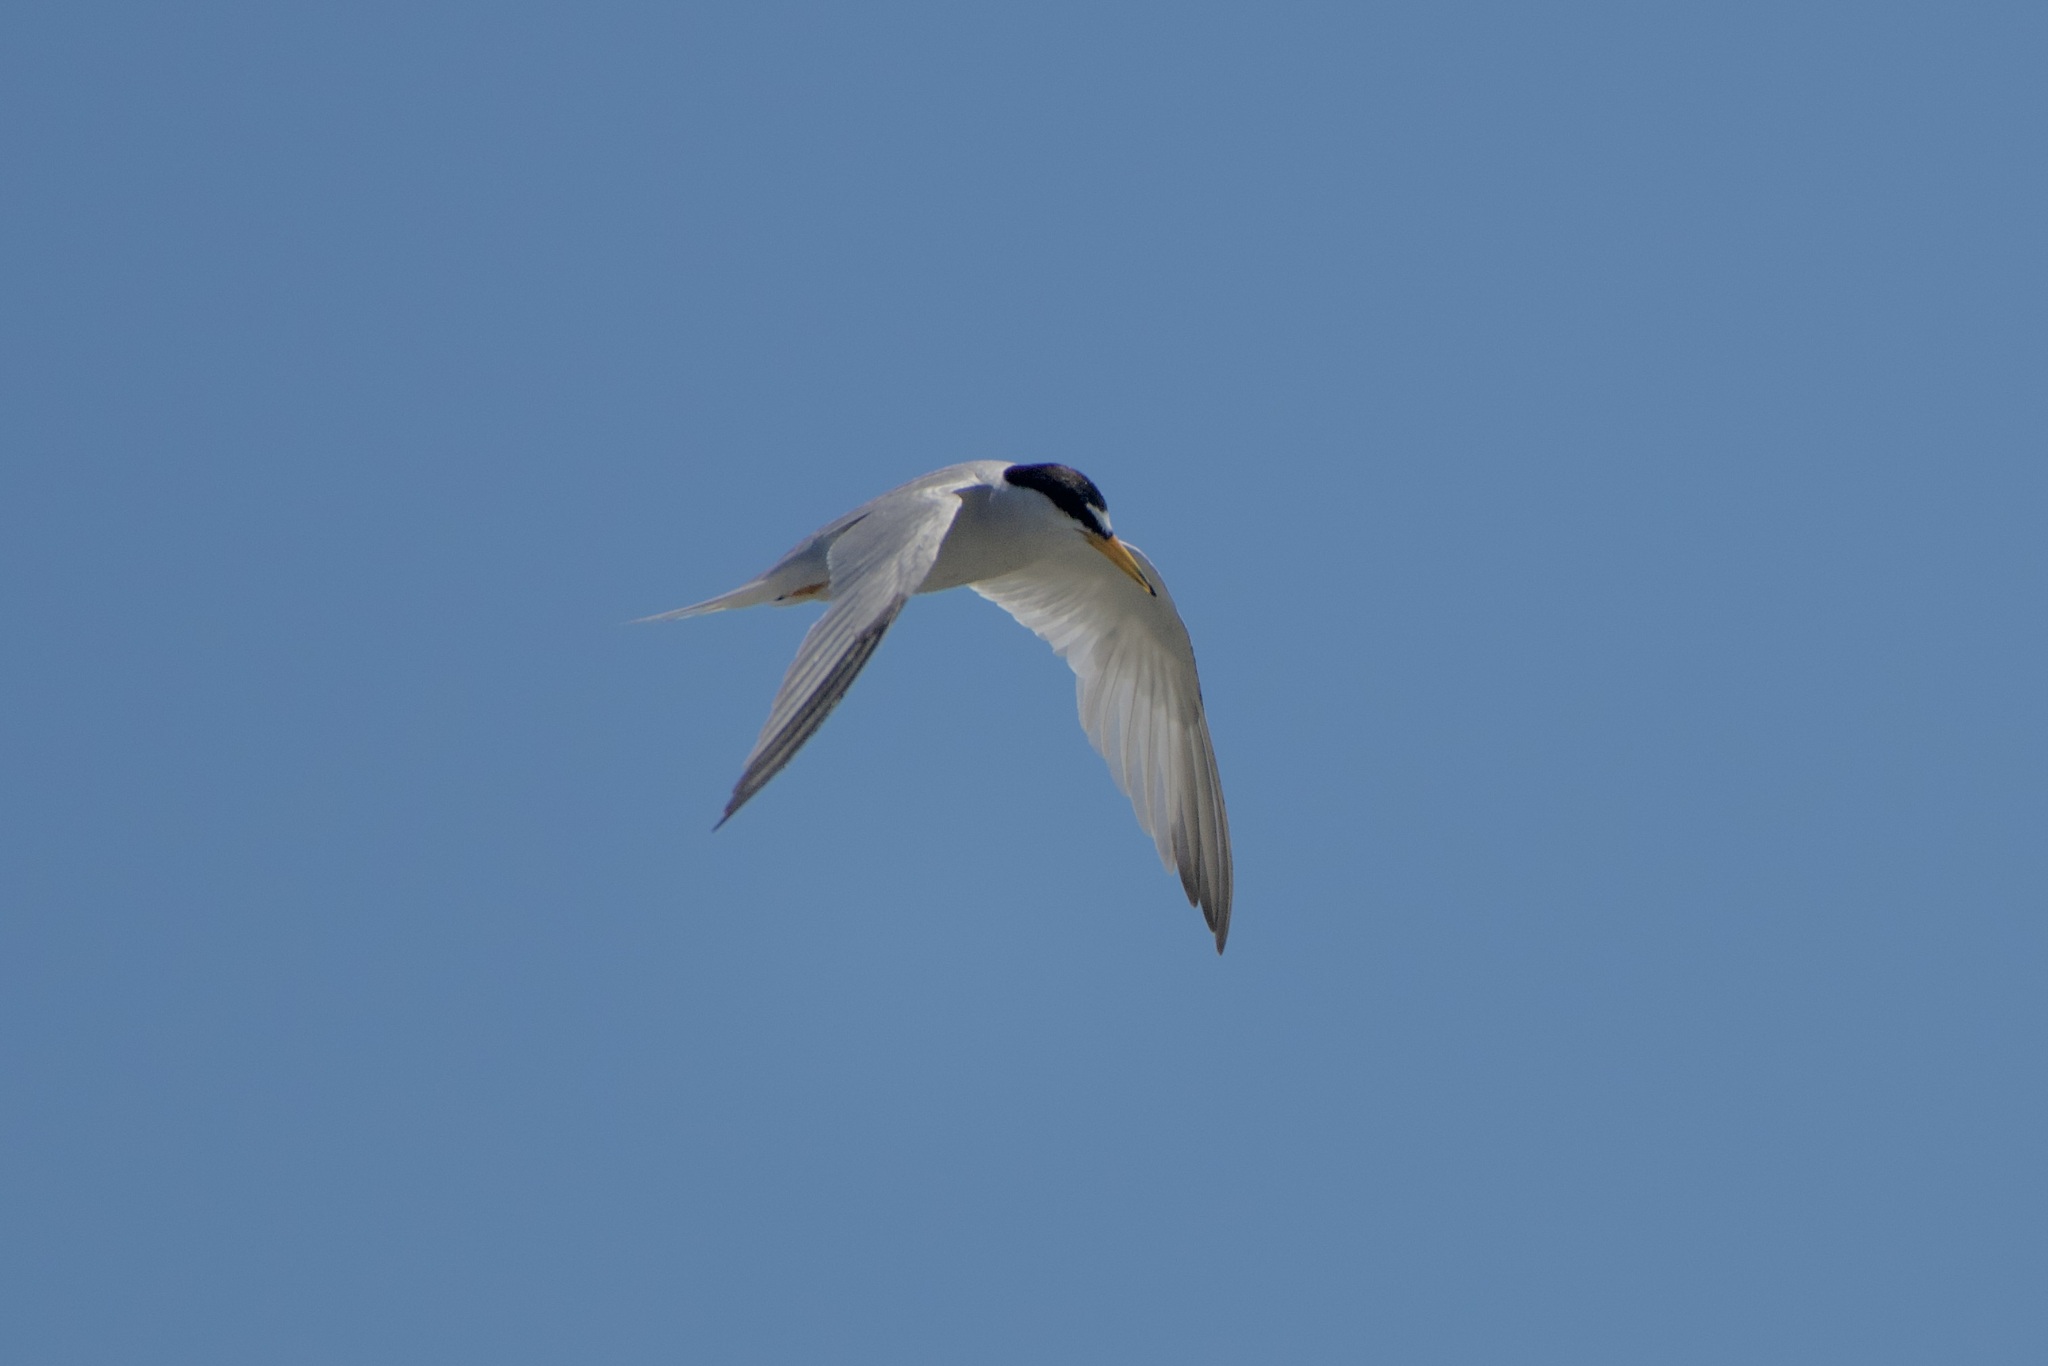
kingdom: Animalia
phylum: Chordata
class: Aves
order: Charadriiformes
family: Laridae
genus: Sternula
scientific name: Sternula antillarum
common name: Least tern
